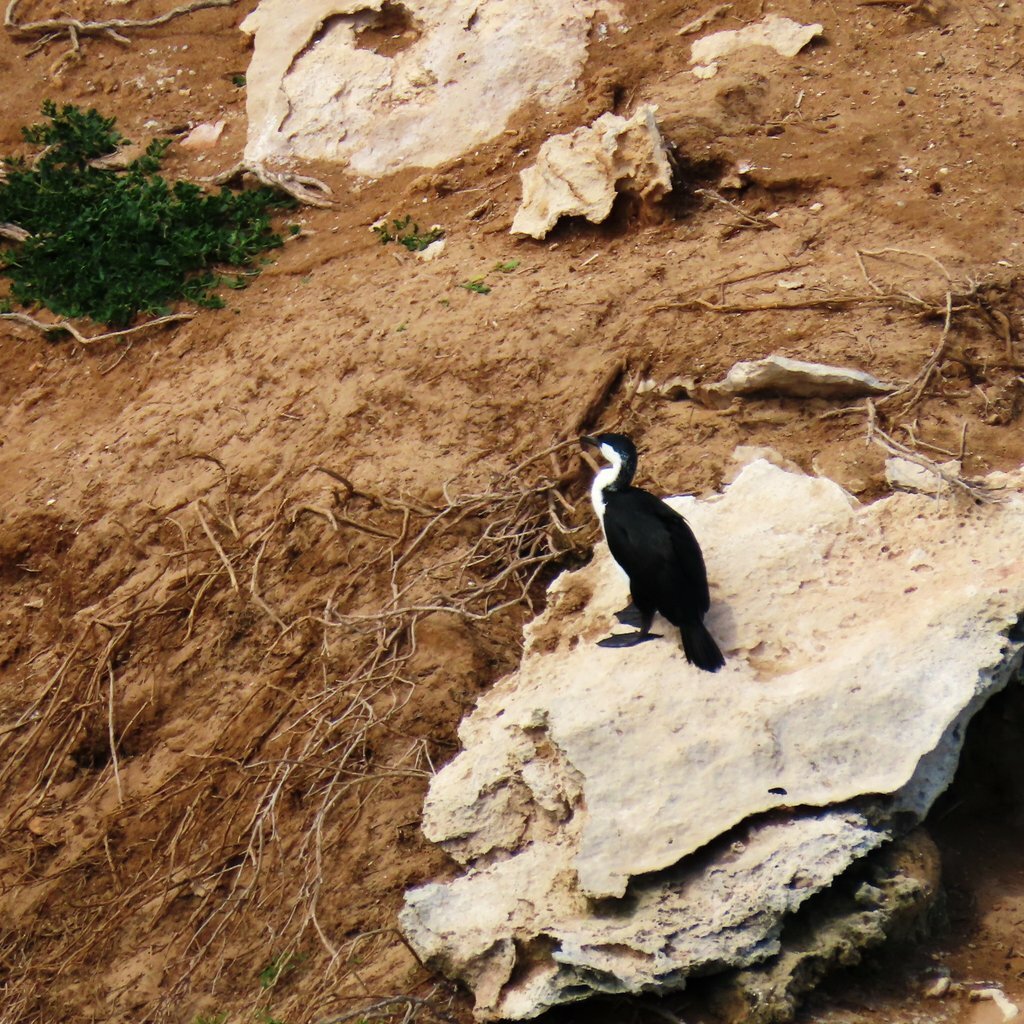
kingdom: Animalia
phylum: Chordata
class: Aves
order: Suliformes
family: Phalacrocoracidae
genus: Phalacrocorax
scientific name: Phalacrocorax fuscescens
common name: Black-faced cormorant
